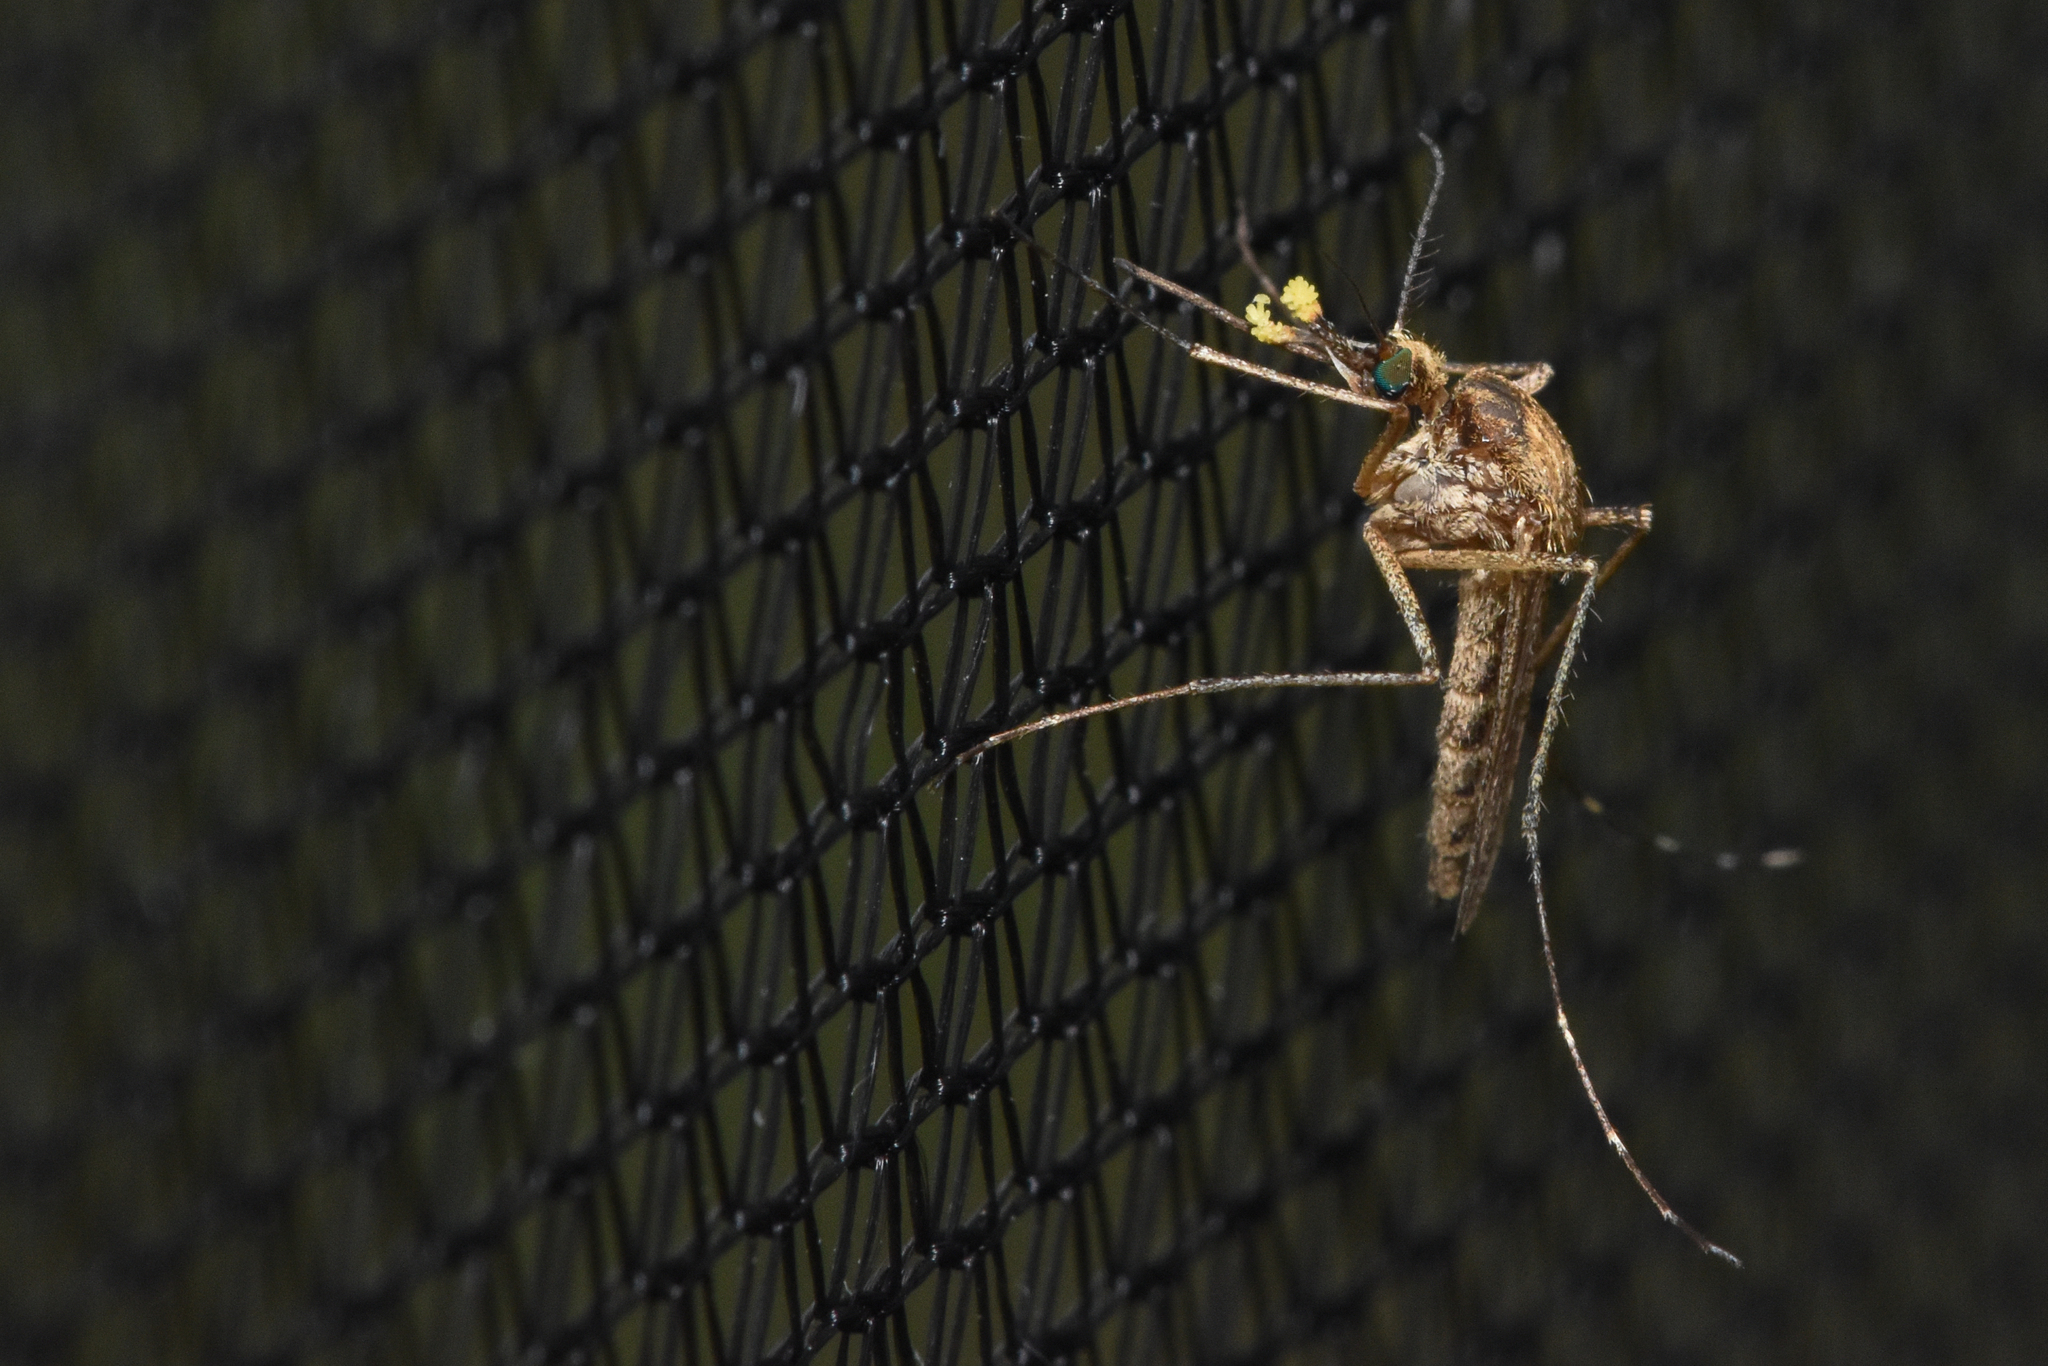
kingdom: Animalia
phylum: Arthropoda
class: Insecta
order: Diptera
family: Culicidae
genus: Aedes
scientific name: Aedes campestris
